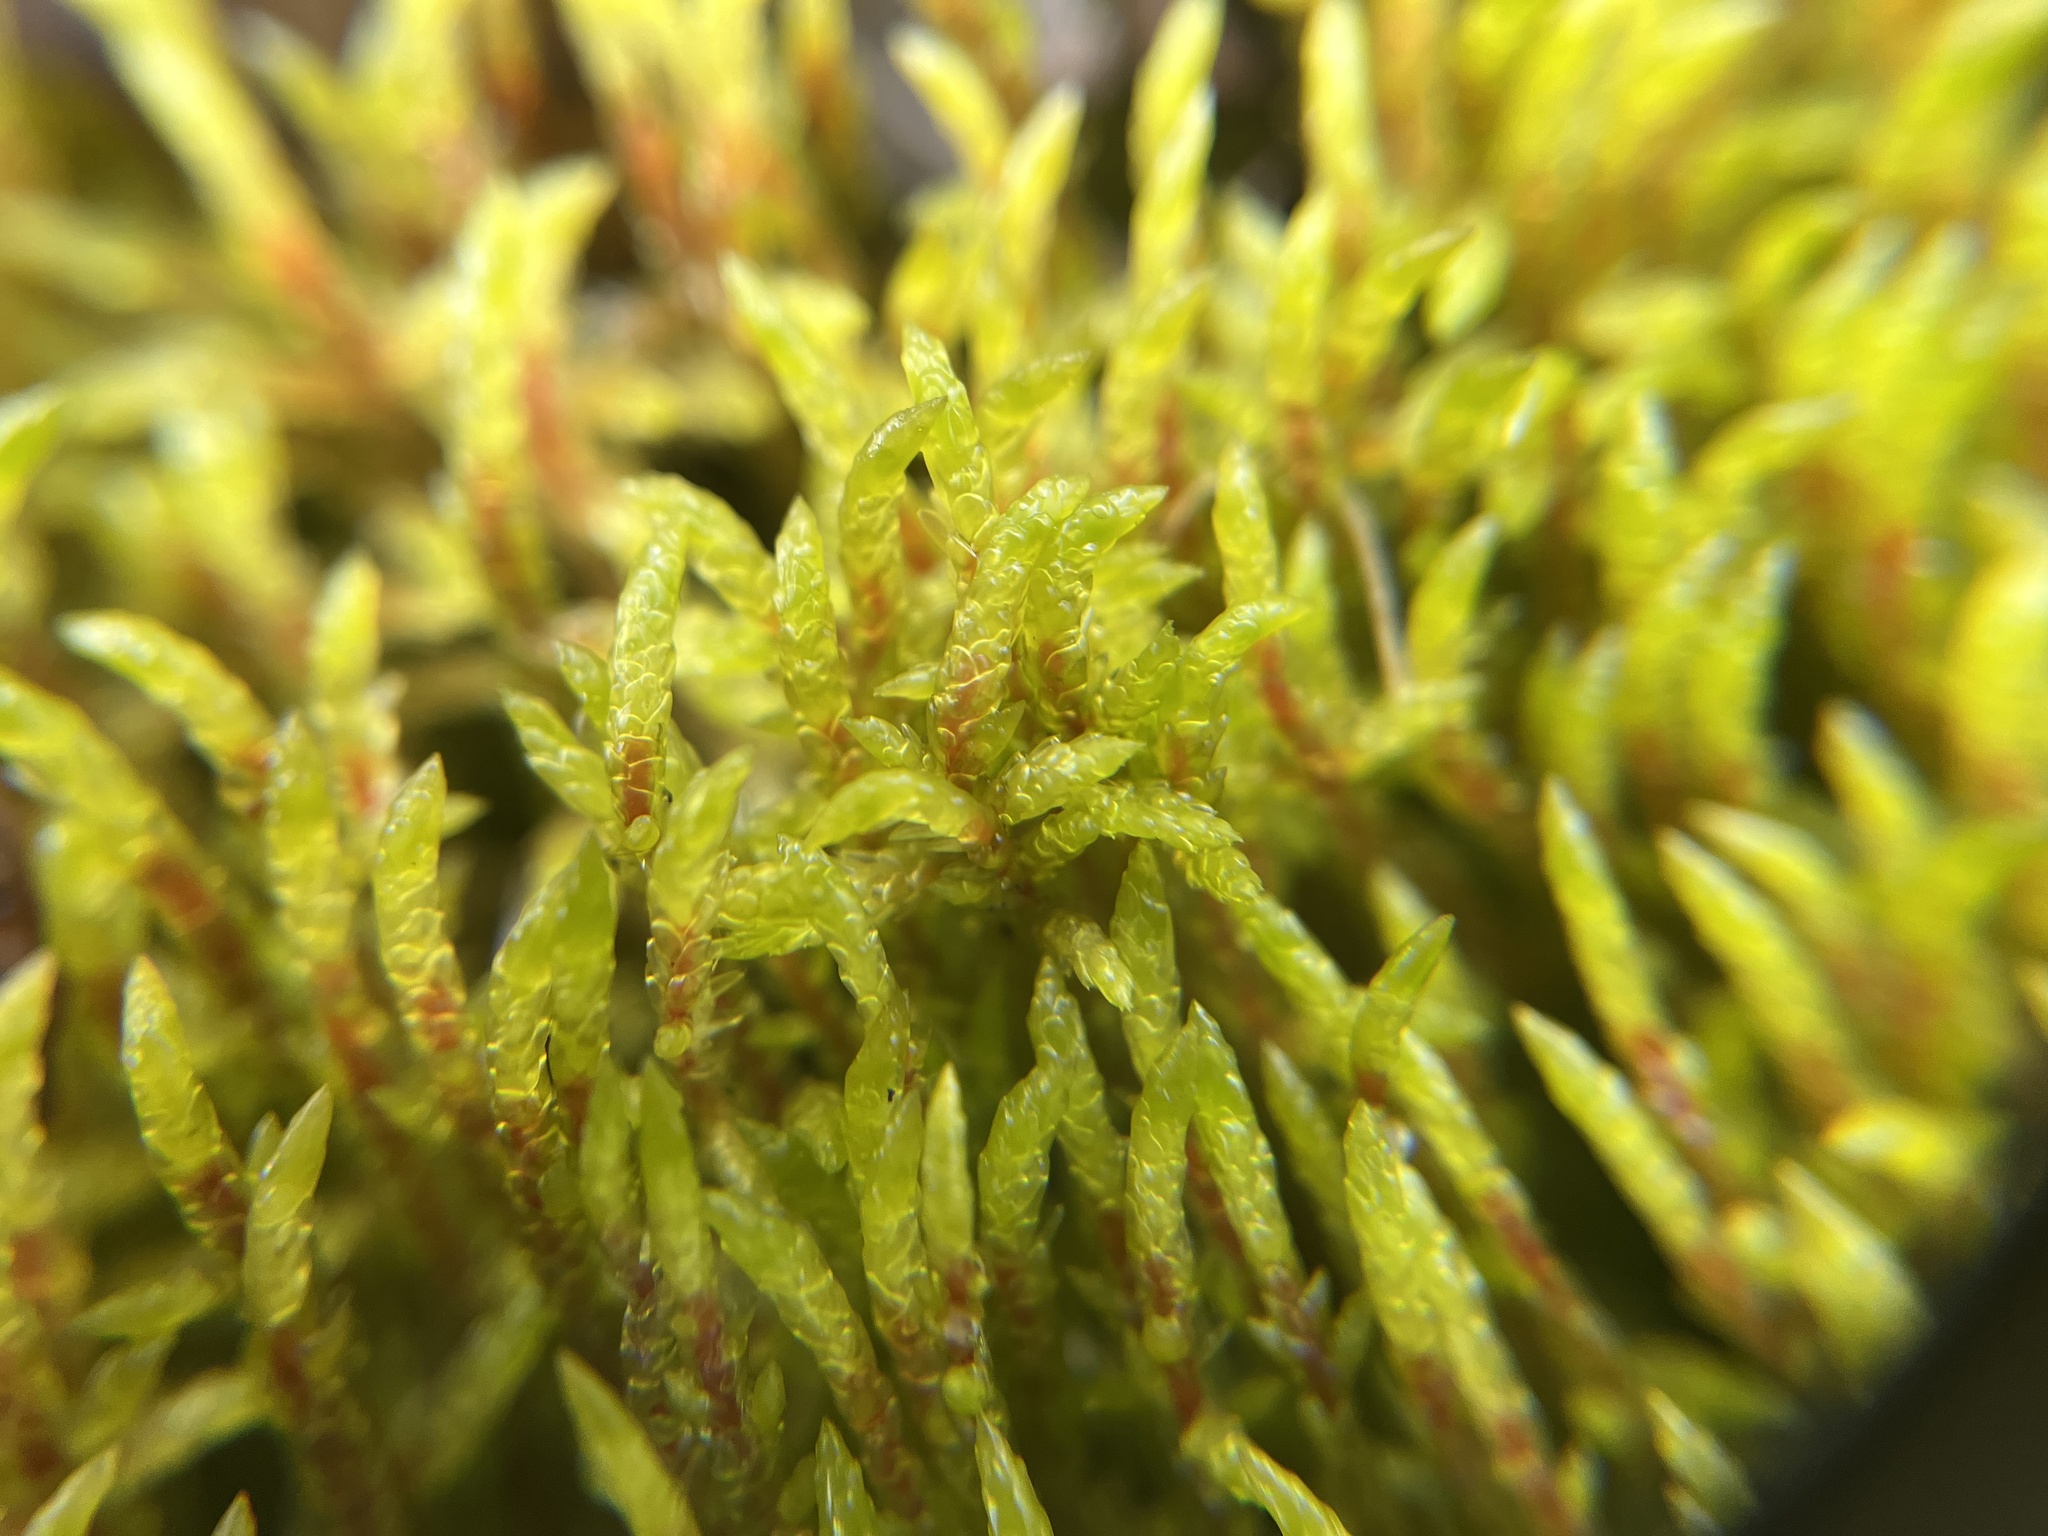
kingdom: Plantae
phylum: Bryophyta
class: Bryopsida
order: Hypnales
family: Hylocomiaceae
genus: Pleurozium
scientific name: Pleurozium schreberi
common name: Red-stemmed feather moss
